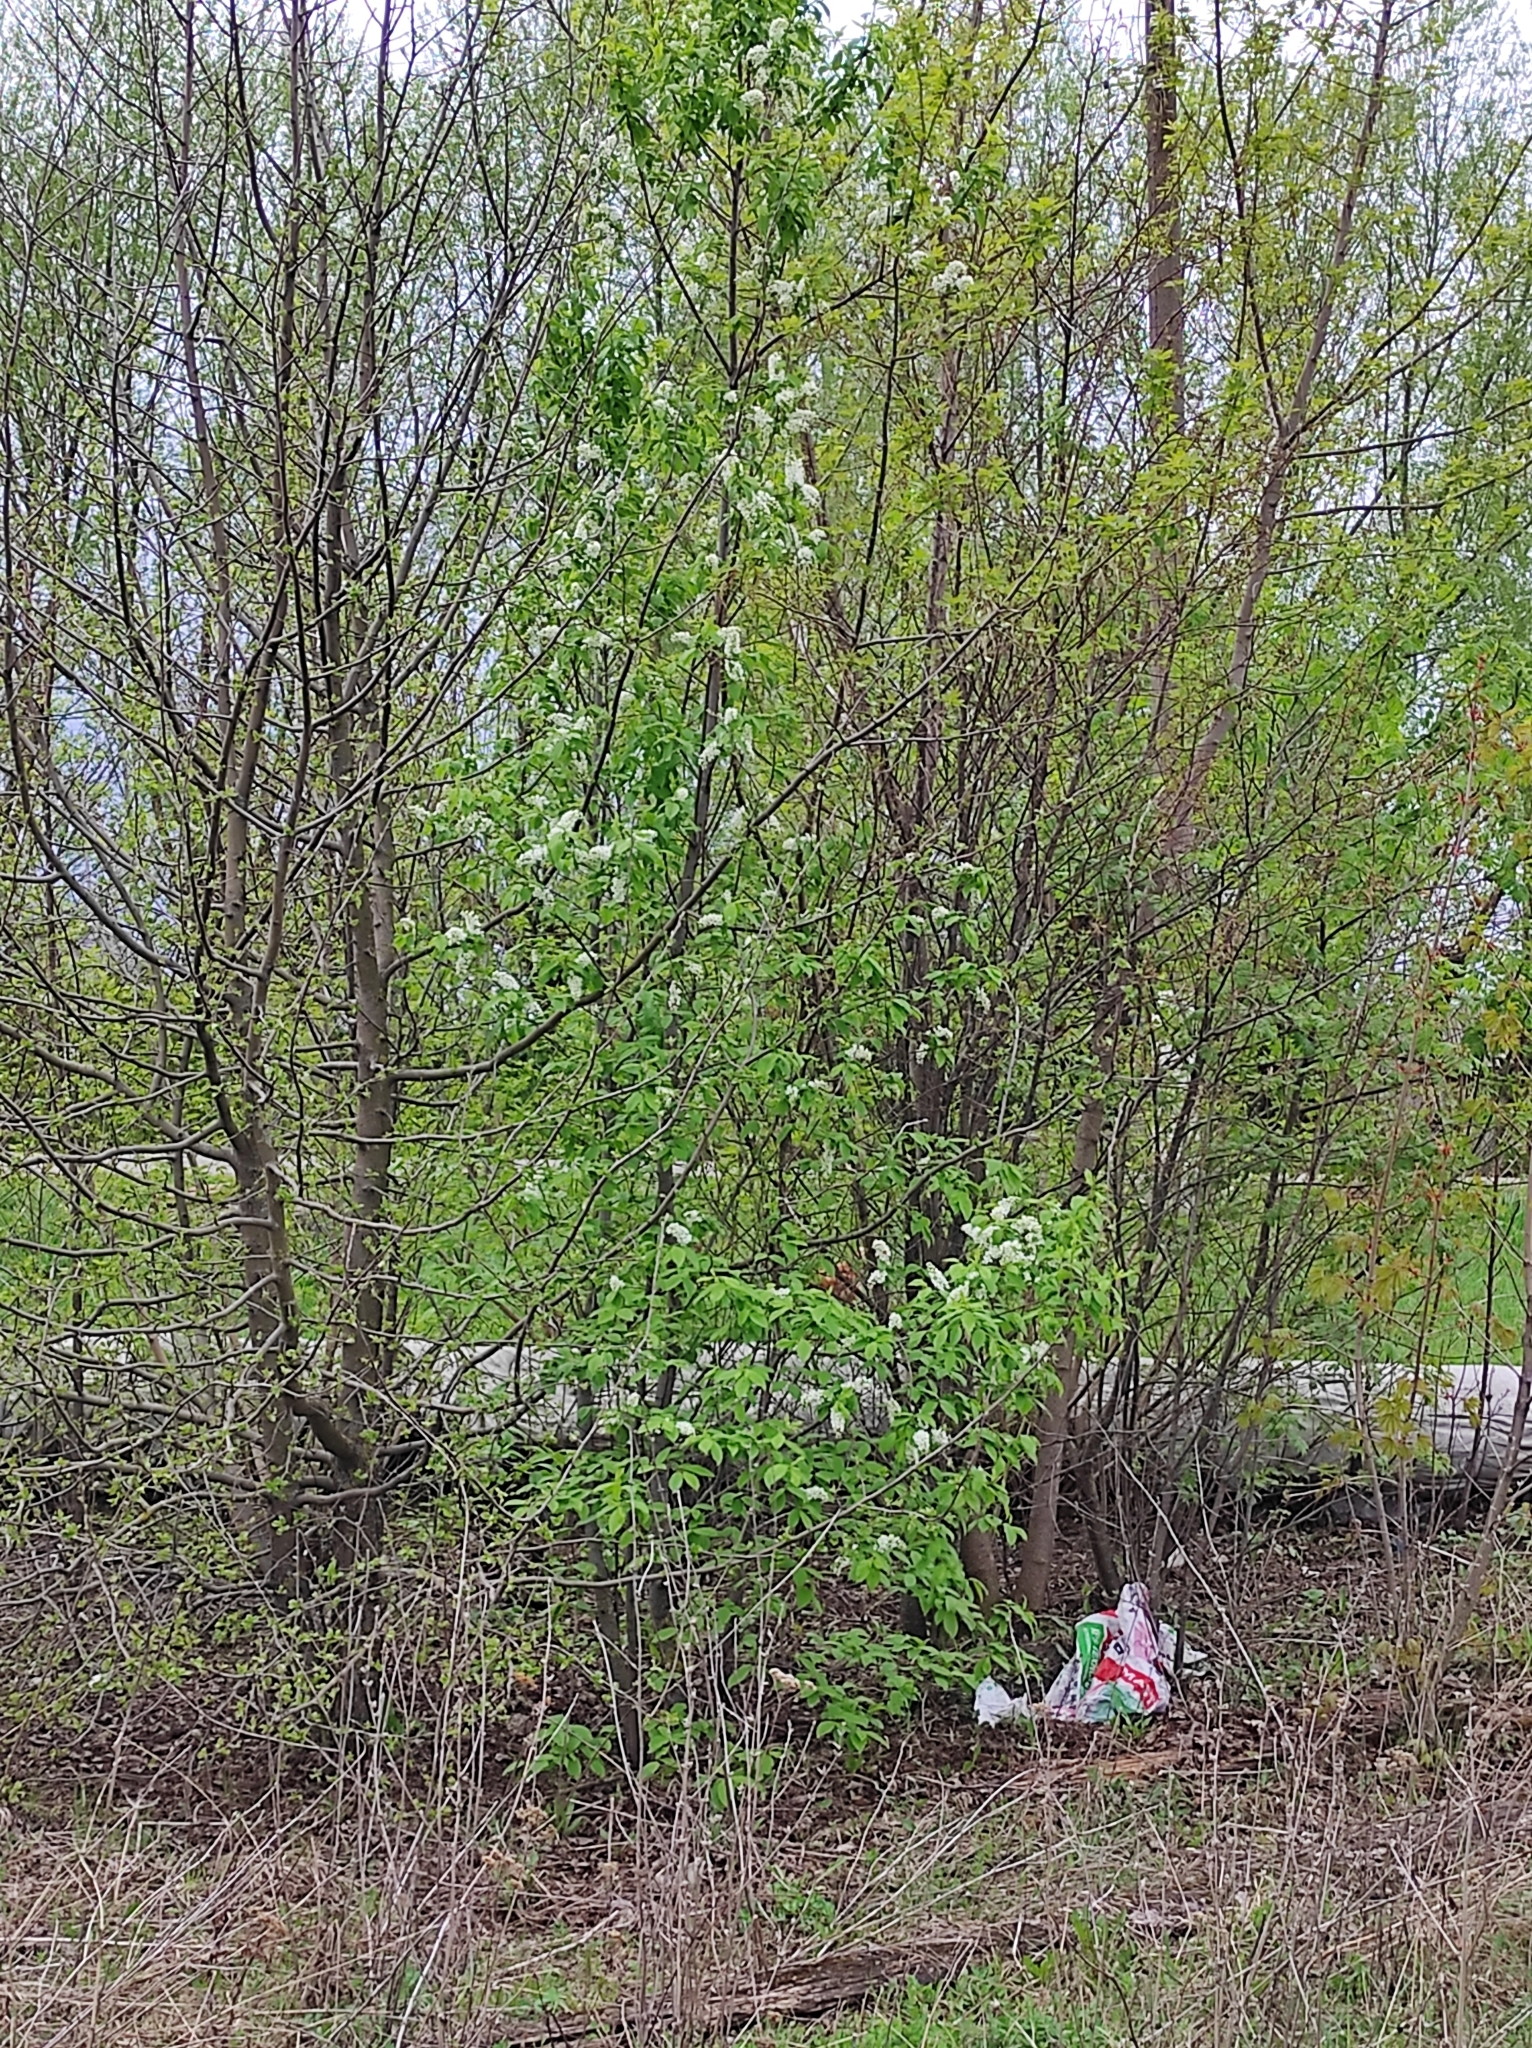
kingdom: Plantae
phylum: Tracheophyta
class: Magnoliopsida
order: Rosales
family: Rosaceae
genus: Prunus
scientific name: Prunus padus
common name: Bird cherry
